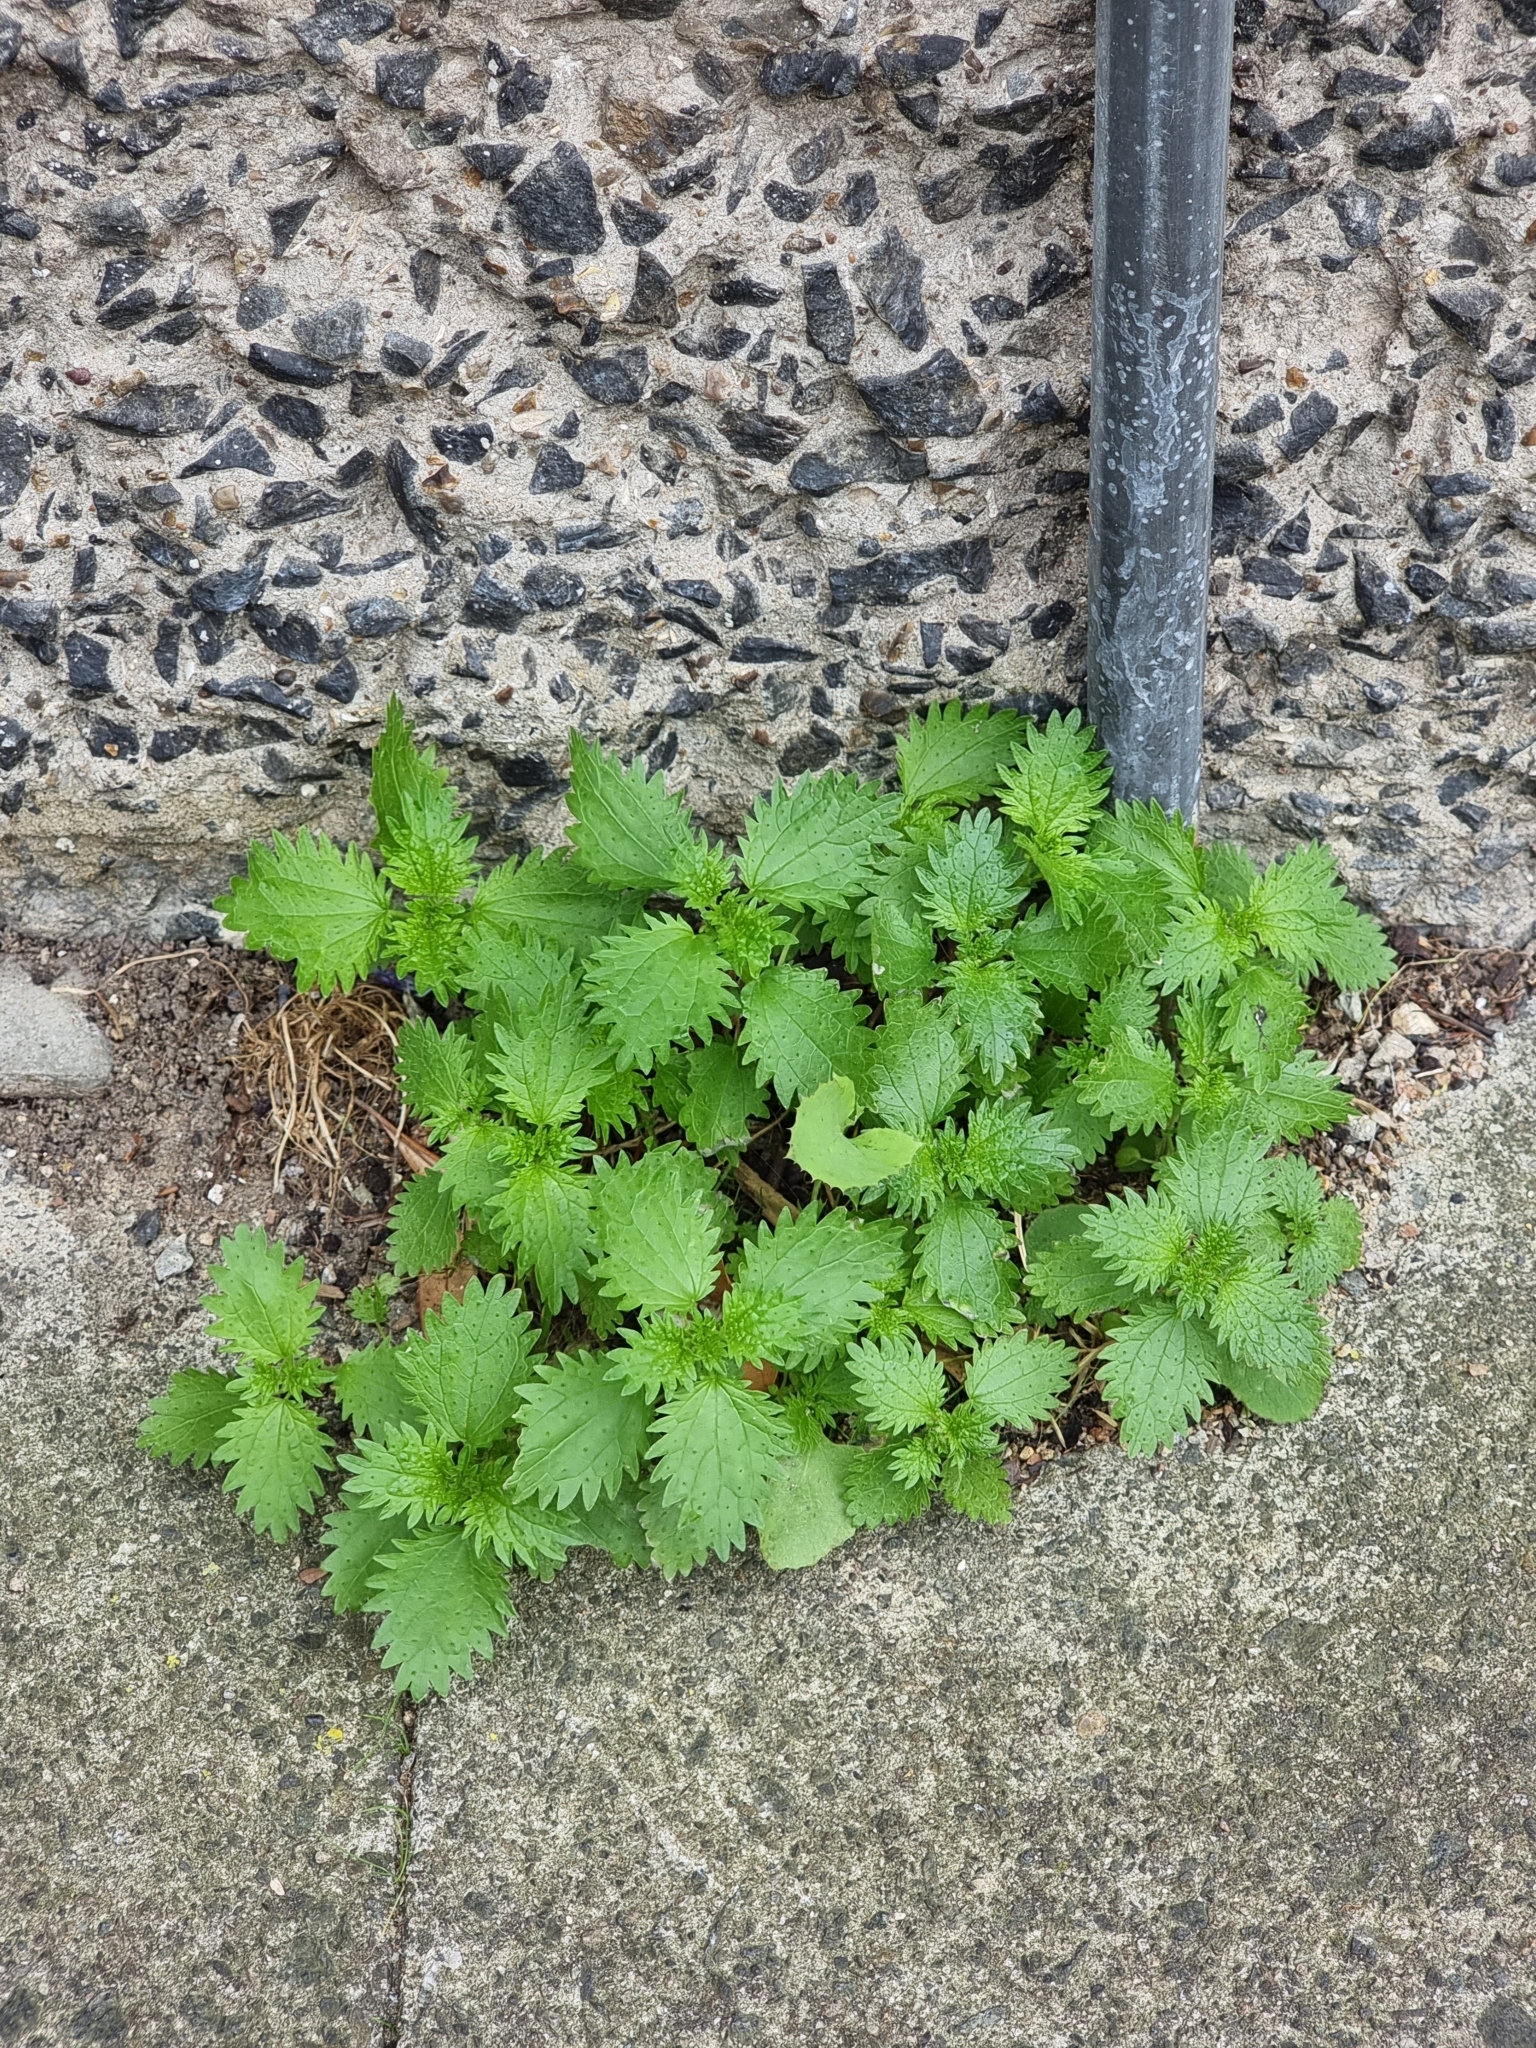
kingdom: Plantae
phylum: Tracheophyta
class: Magnoliopsida
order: Rosales
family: Urticaceae
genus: Urtica
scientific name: Urtica urens
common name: Dwarf nettle
